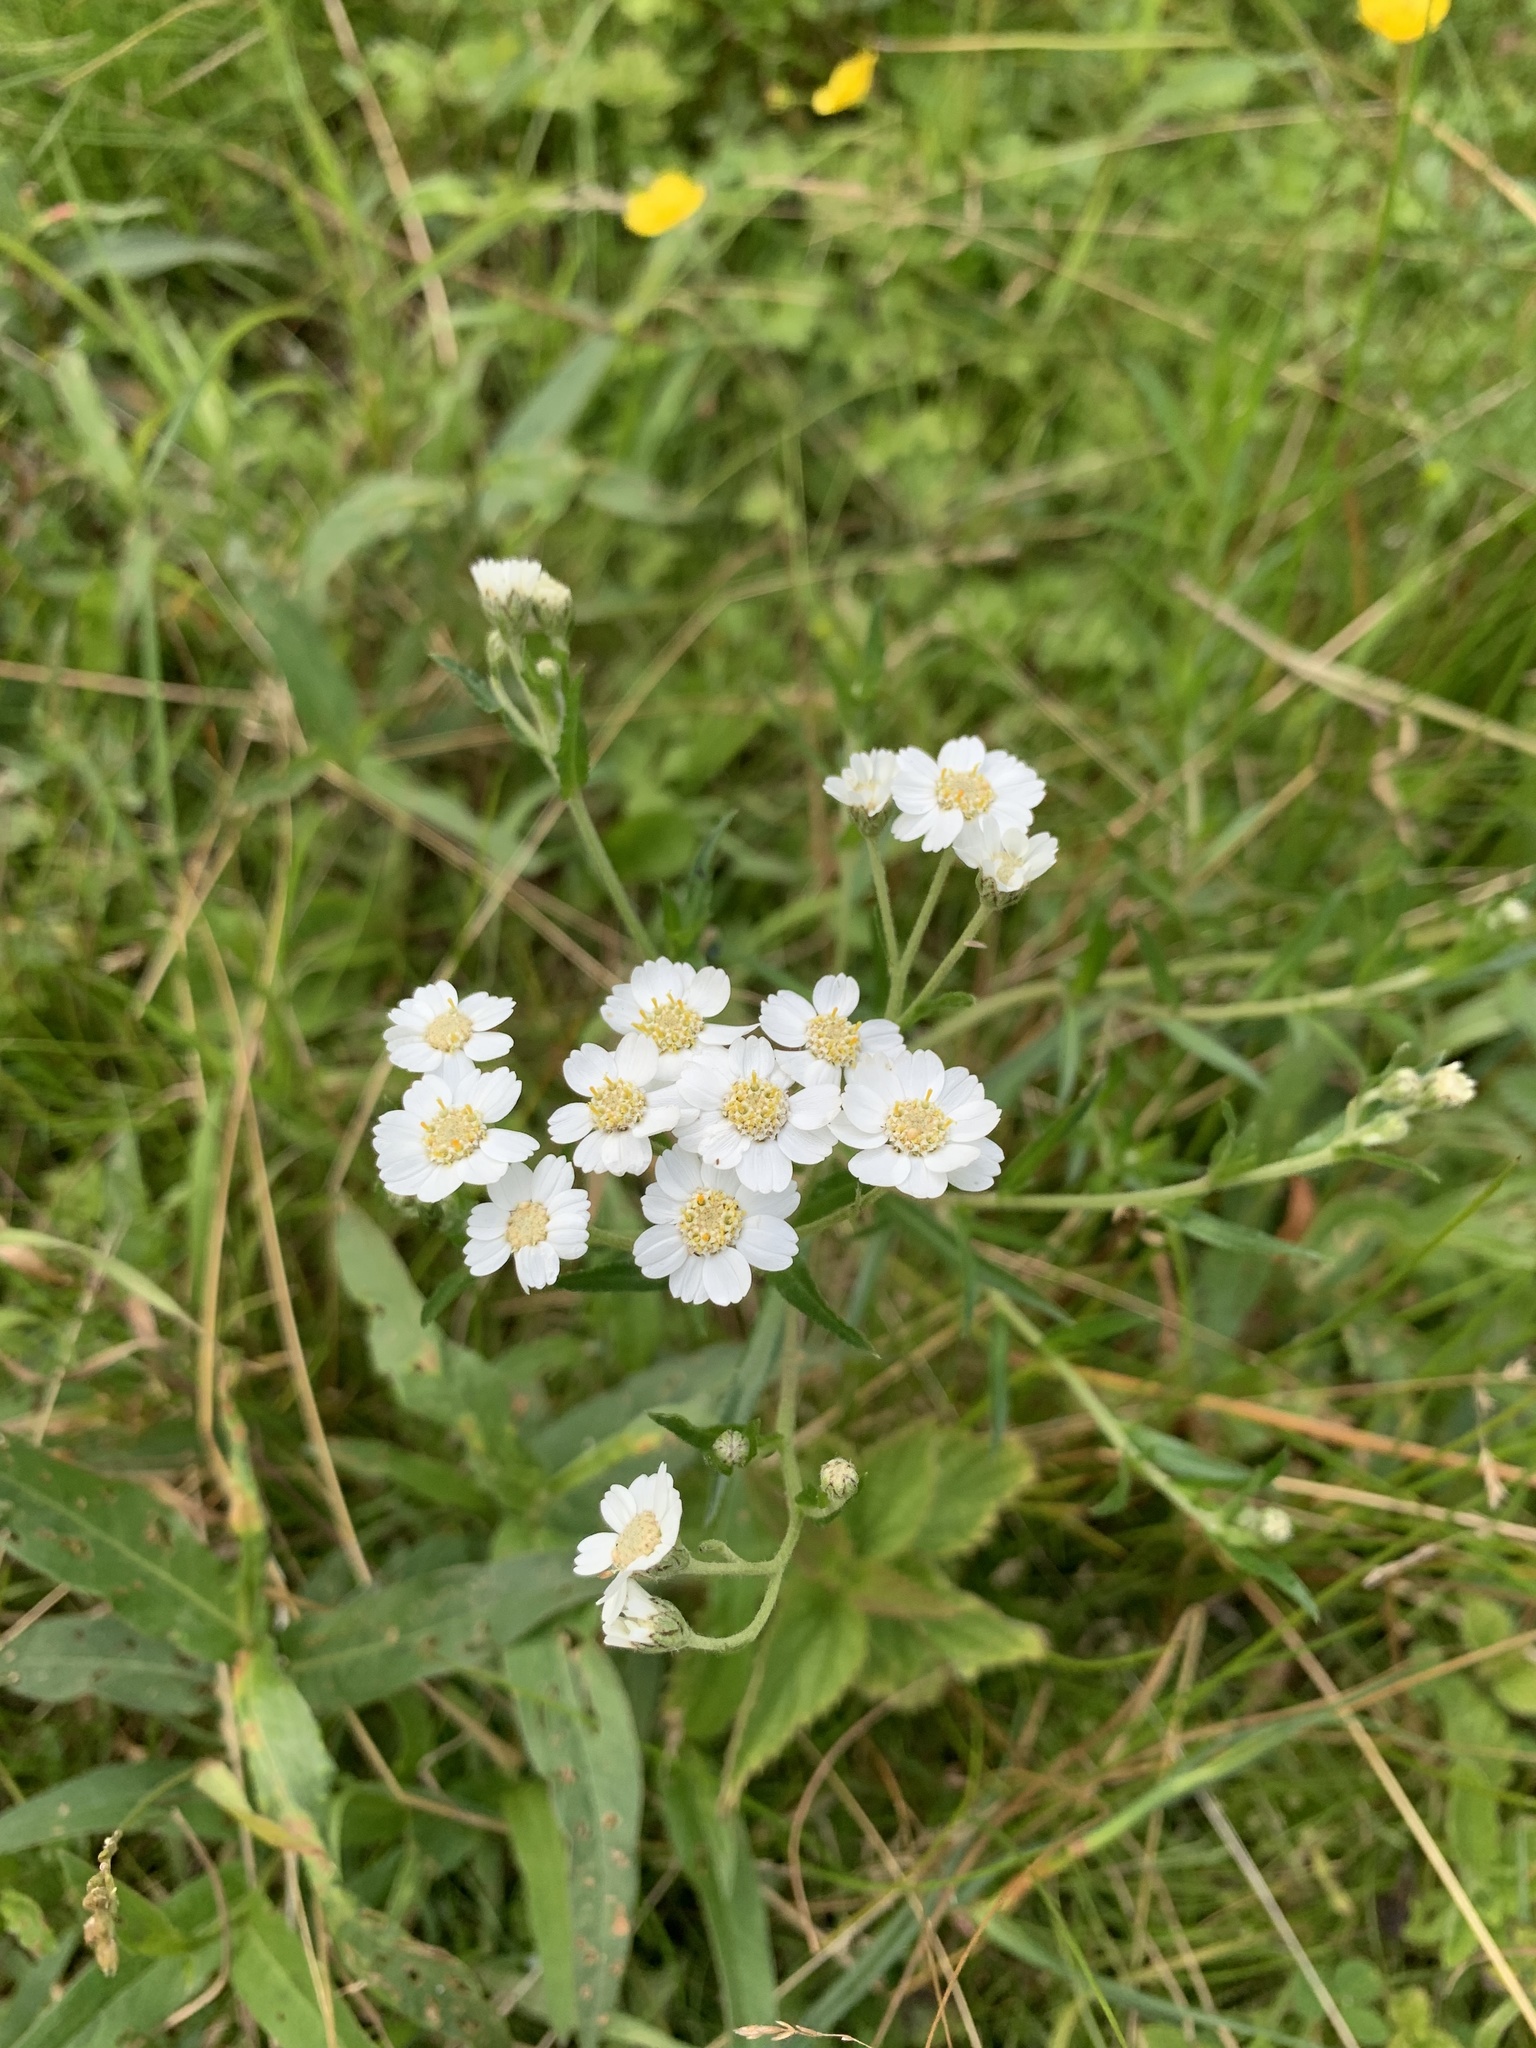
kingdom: Plantae
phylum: Tracheophyta
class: Magnoliopsida
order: Asterales
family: Asteraceae
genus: Achillea
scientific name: Achillea ptarmica
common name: Sneezeweed
